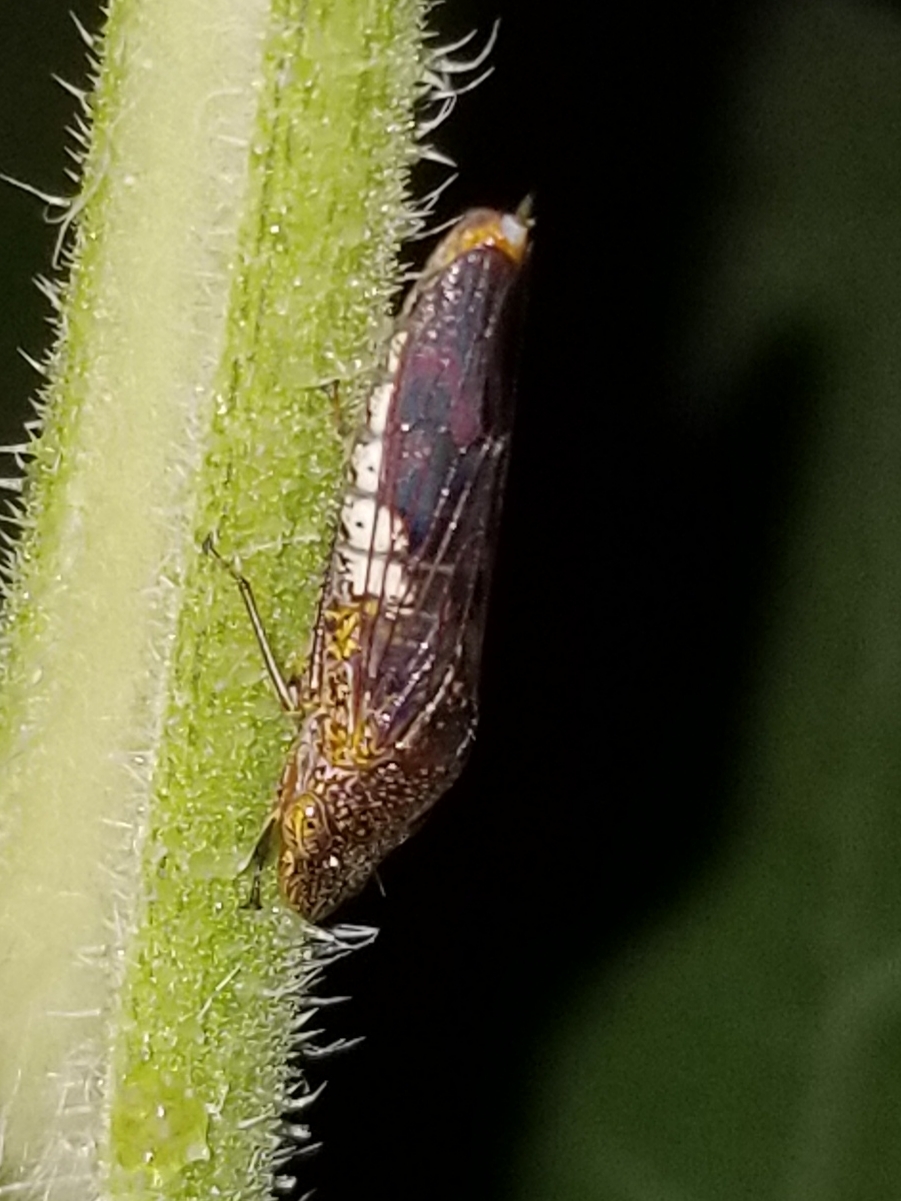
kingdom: Animalia
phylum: Arthropoda
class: Insecta
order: Hemiptera
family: Cicadellidae
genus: Homalodisca
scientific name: Homalodisca vitripennis
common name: Glassy-winged sharpshooter
